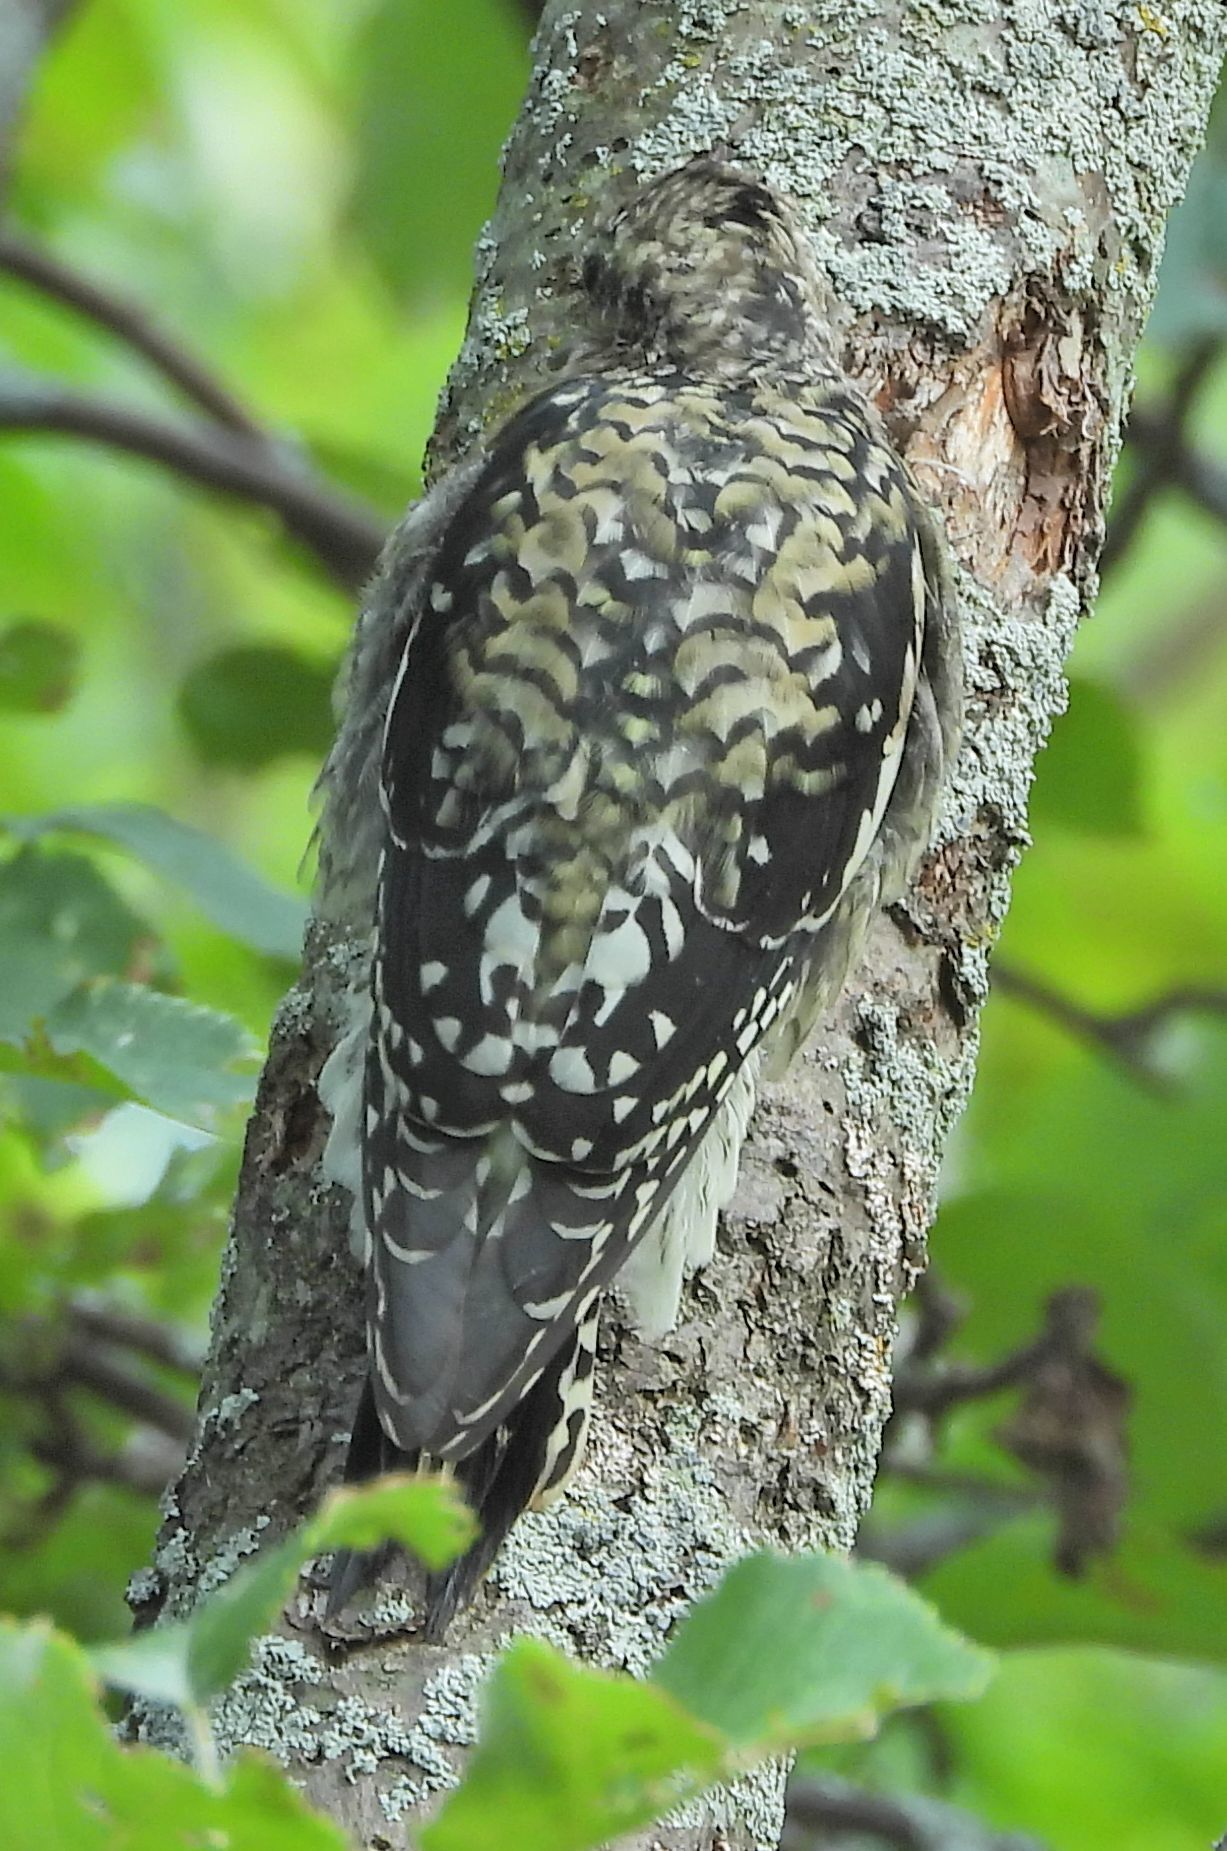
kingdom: Animalia
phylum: Chordata
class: Aves
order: Piciformes
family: Picidae
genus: Sphyrapicus
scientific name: Sphyrapicus varius
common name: Yellow-bellied sapsucker
